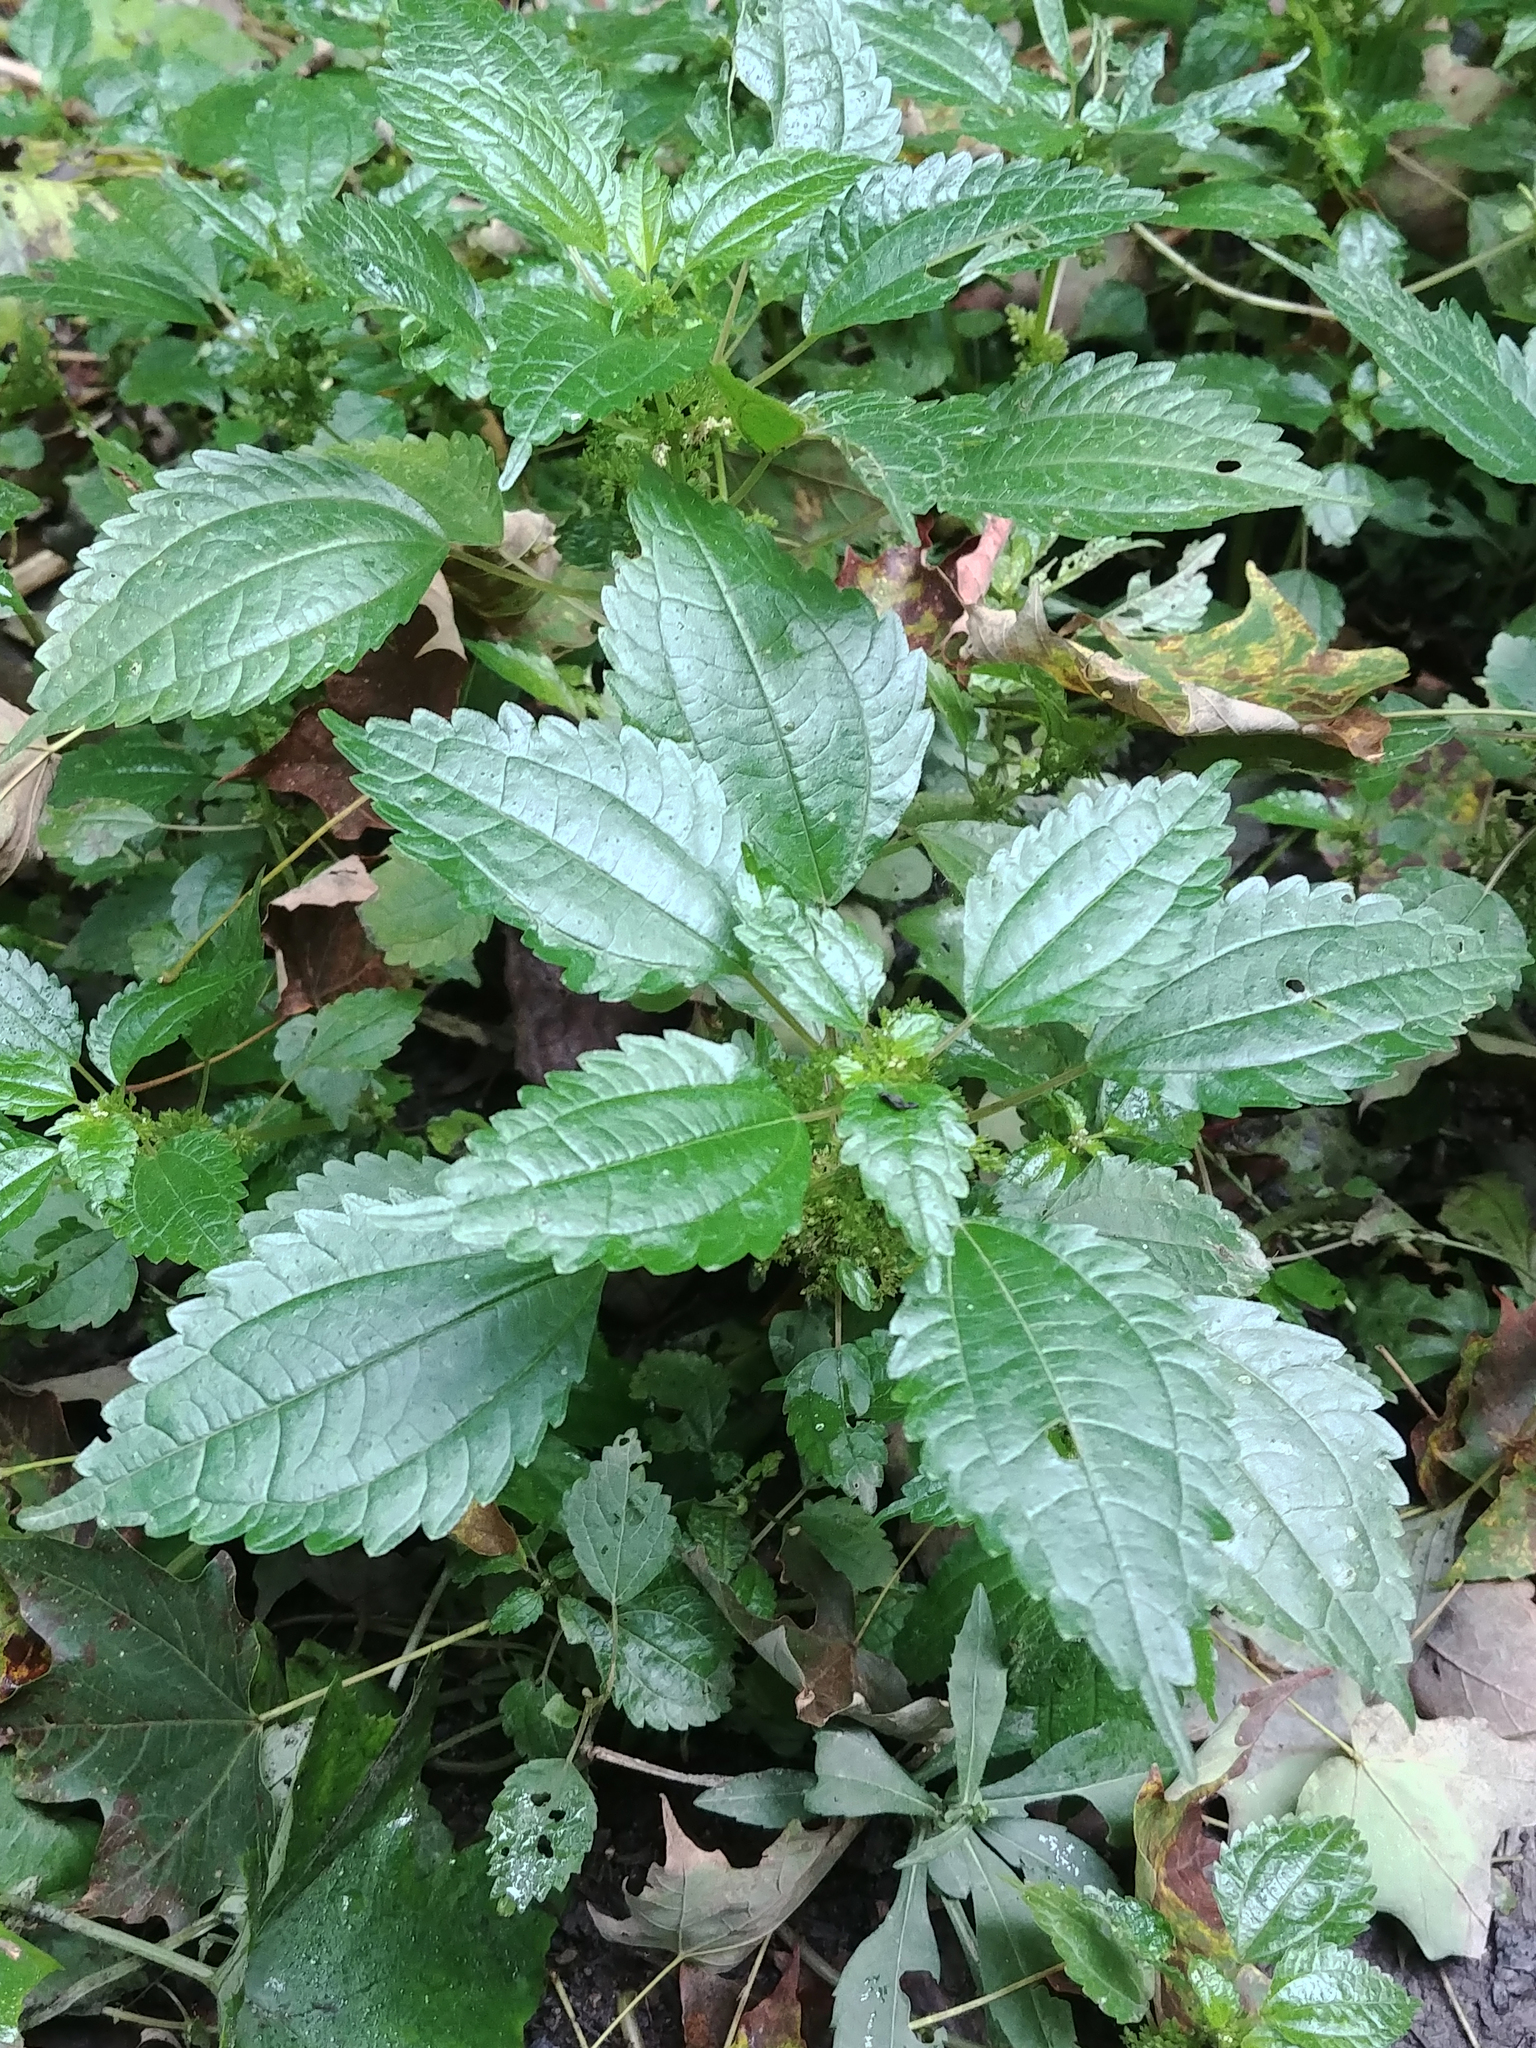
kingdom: Plantae
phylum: Tracheophyta
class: Magnoliopsida
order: Rosales
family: Urticaceae
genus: Pilea
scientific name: Pilea pumila
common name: Clearweed
